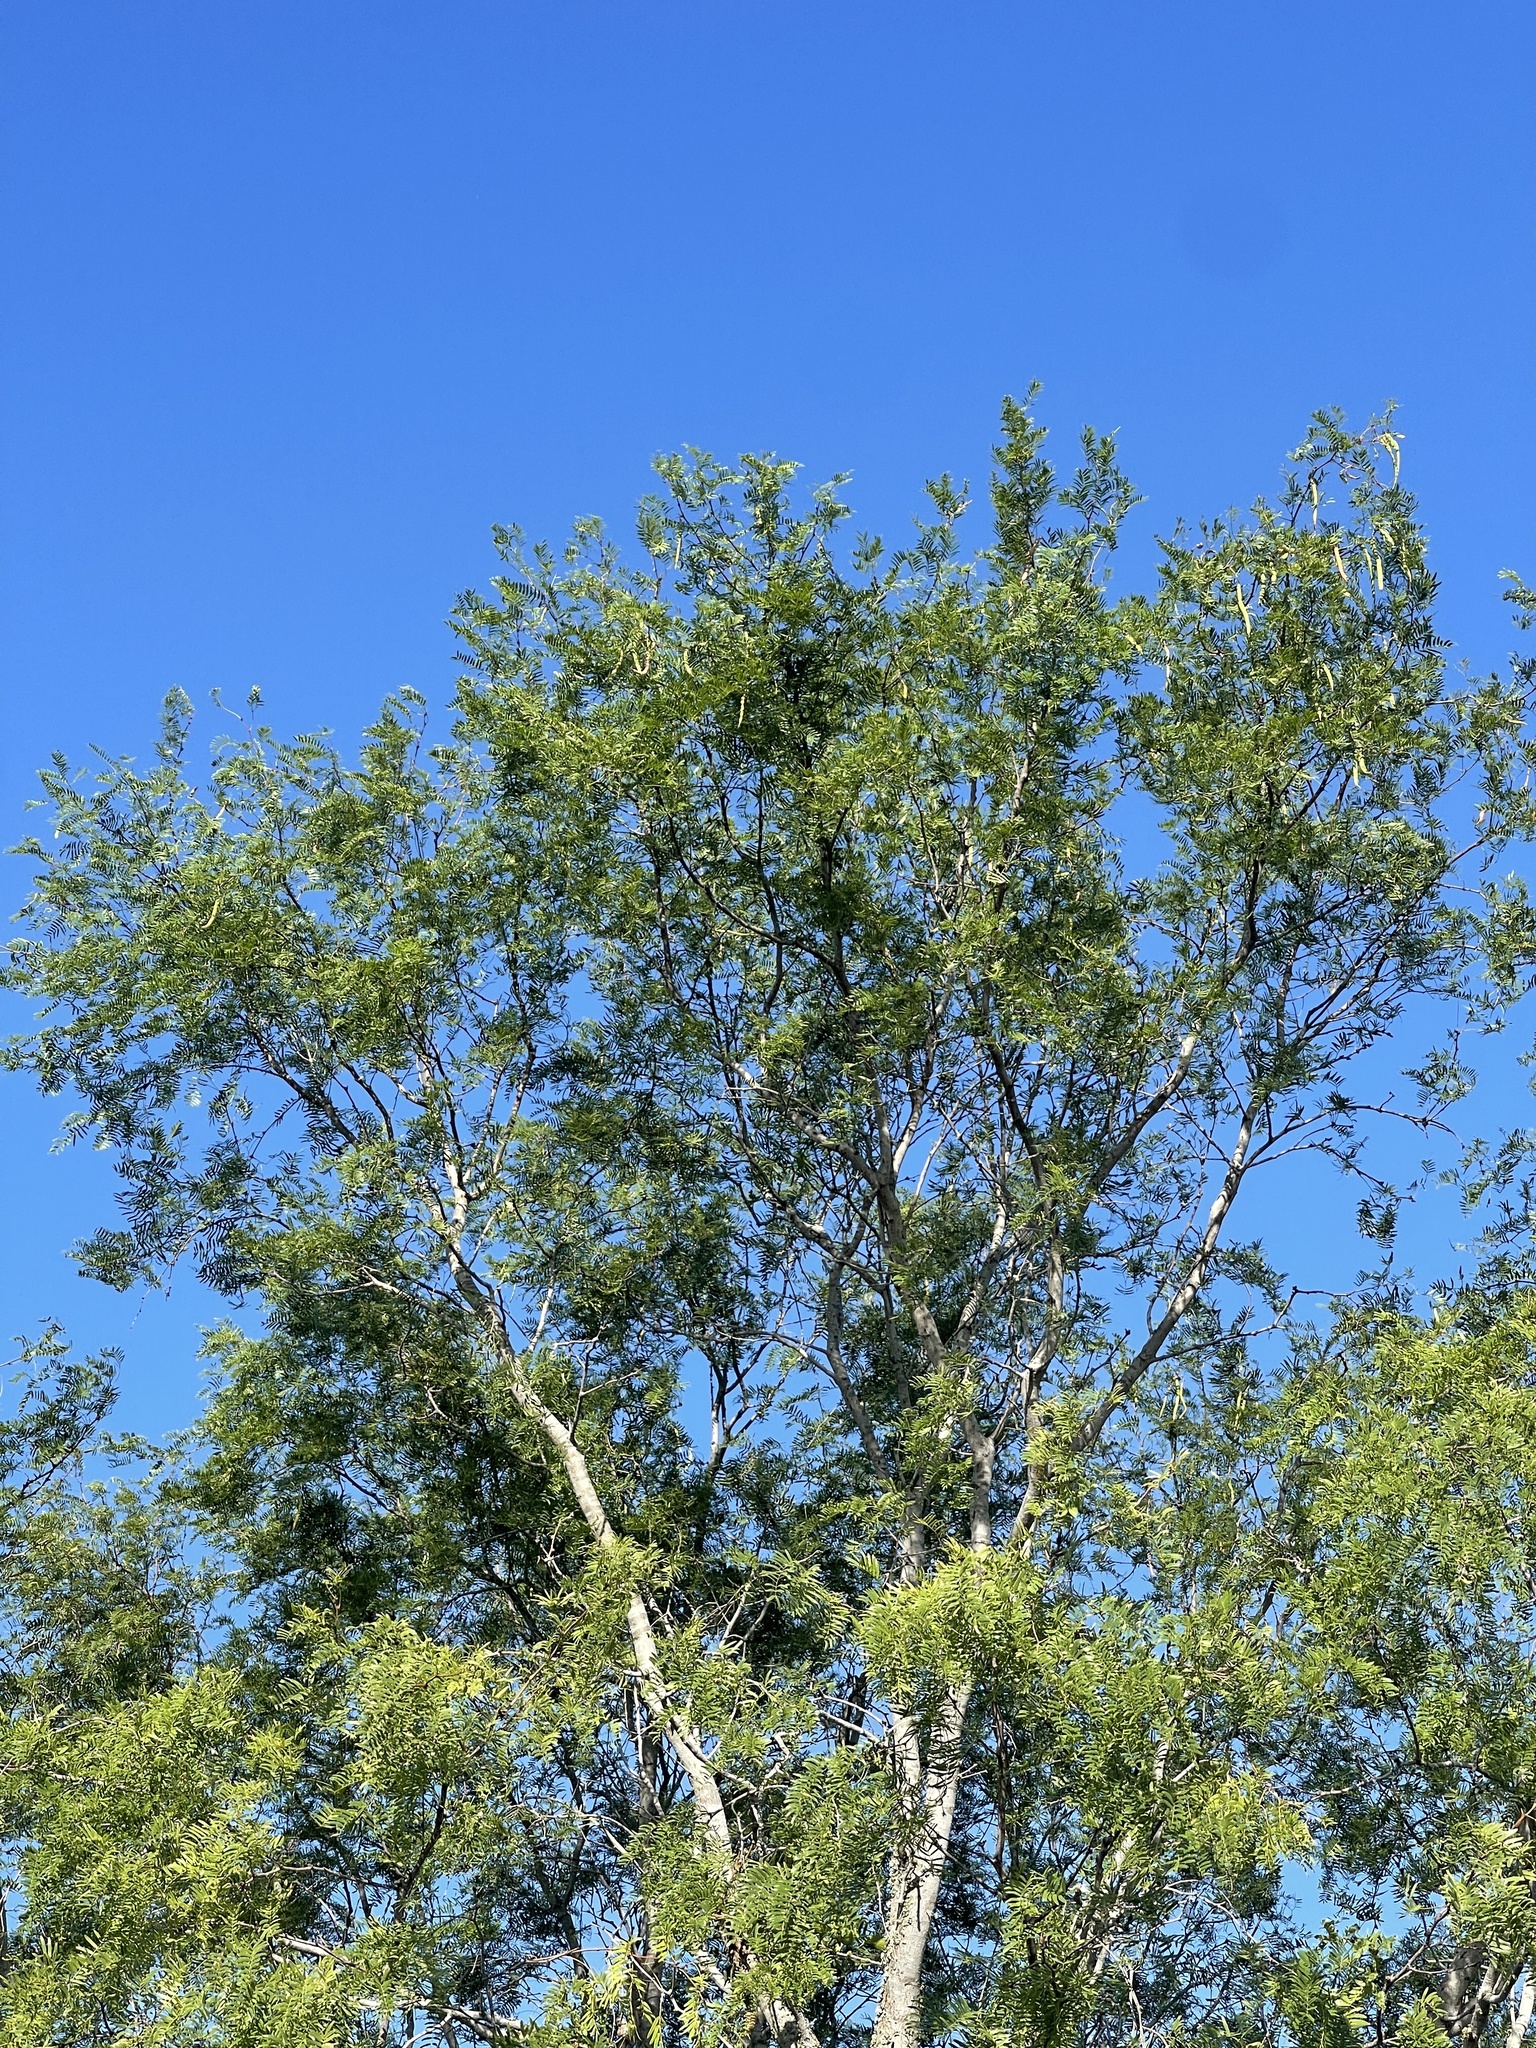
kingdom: Plantae
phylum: Tracheophyta
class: Magnoliopsida
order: Fabales
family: Fabaceae
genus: Prosopis
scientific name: Prosopis glandulosa
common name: Honey mesquite
